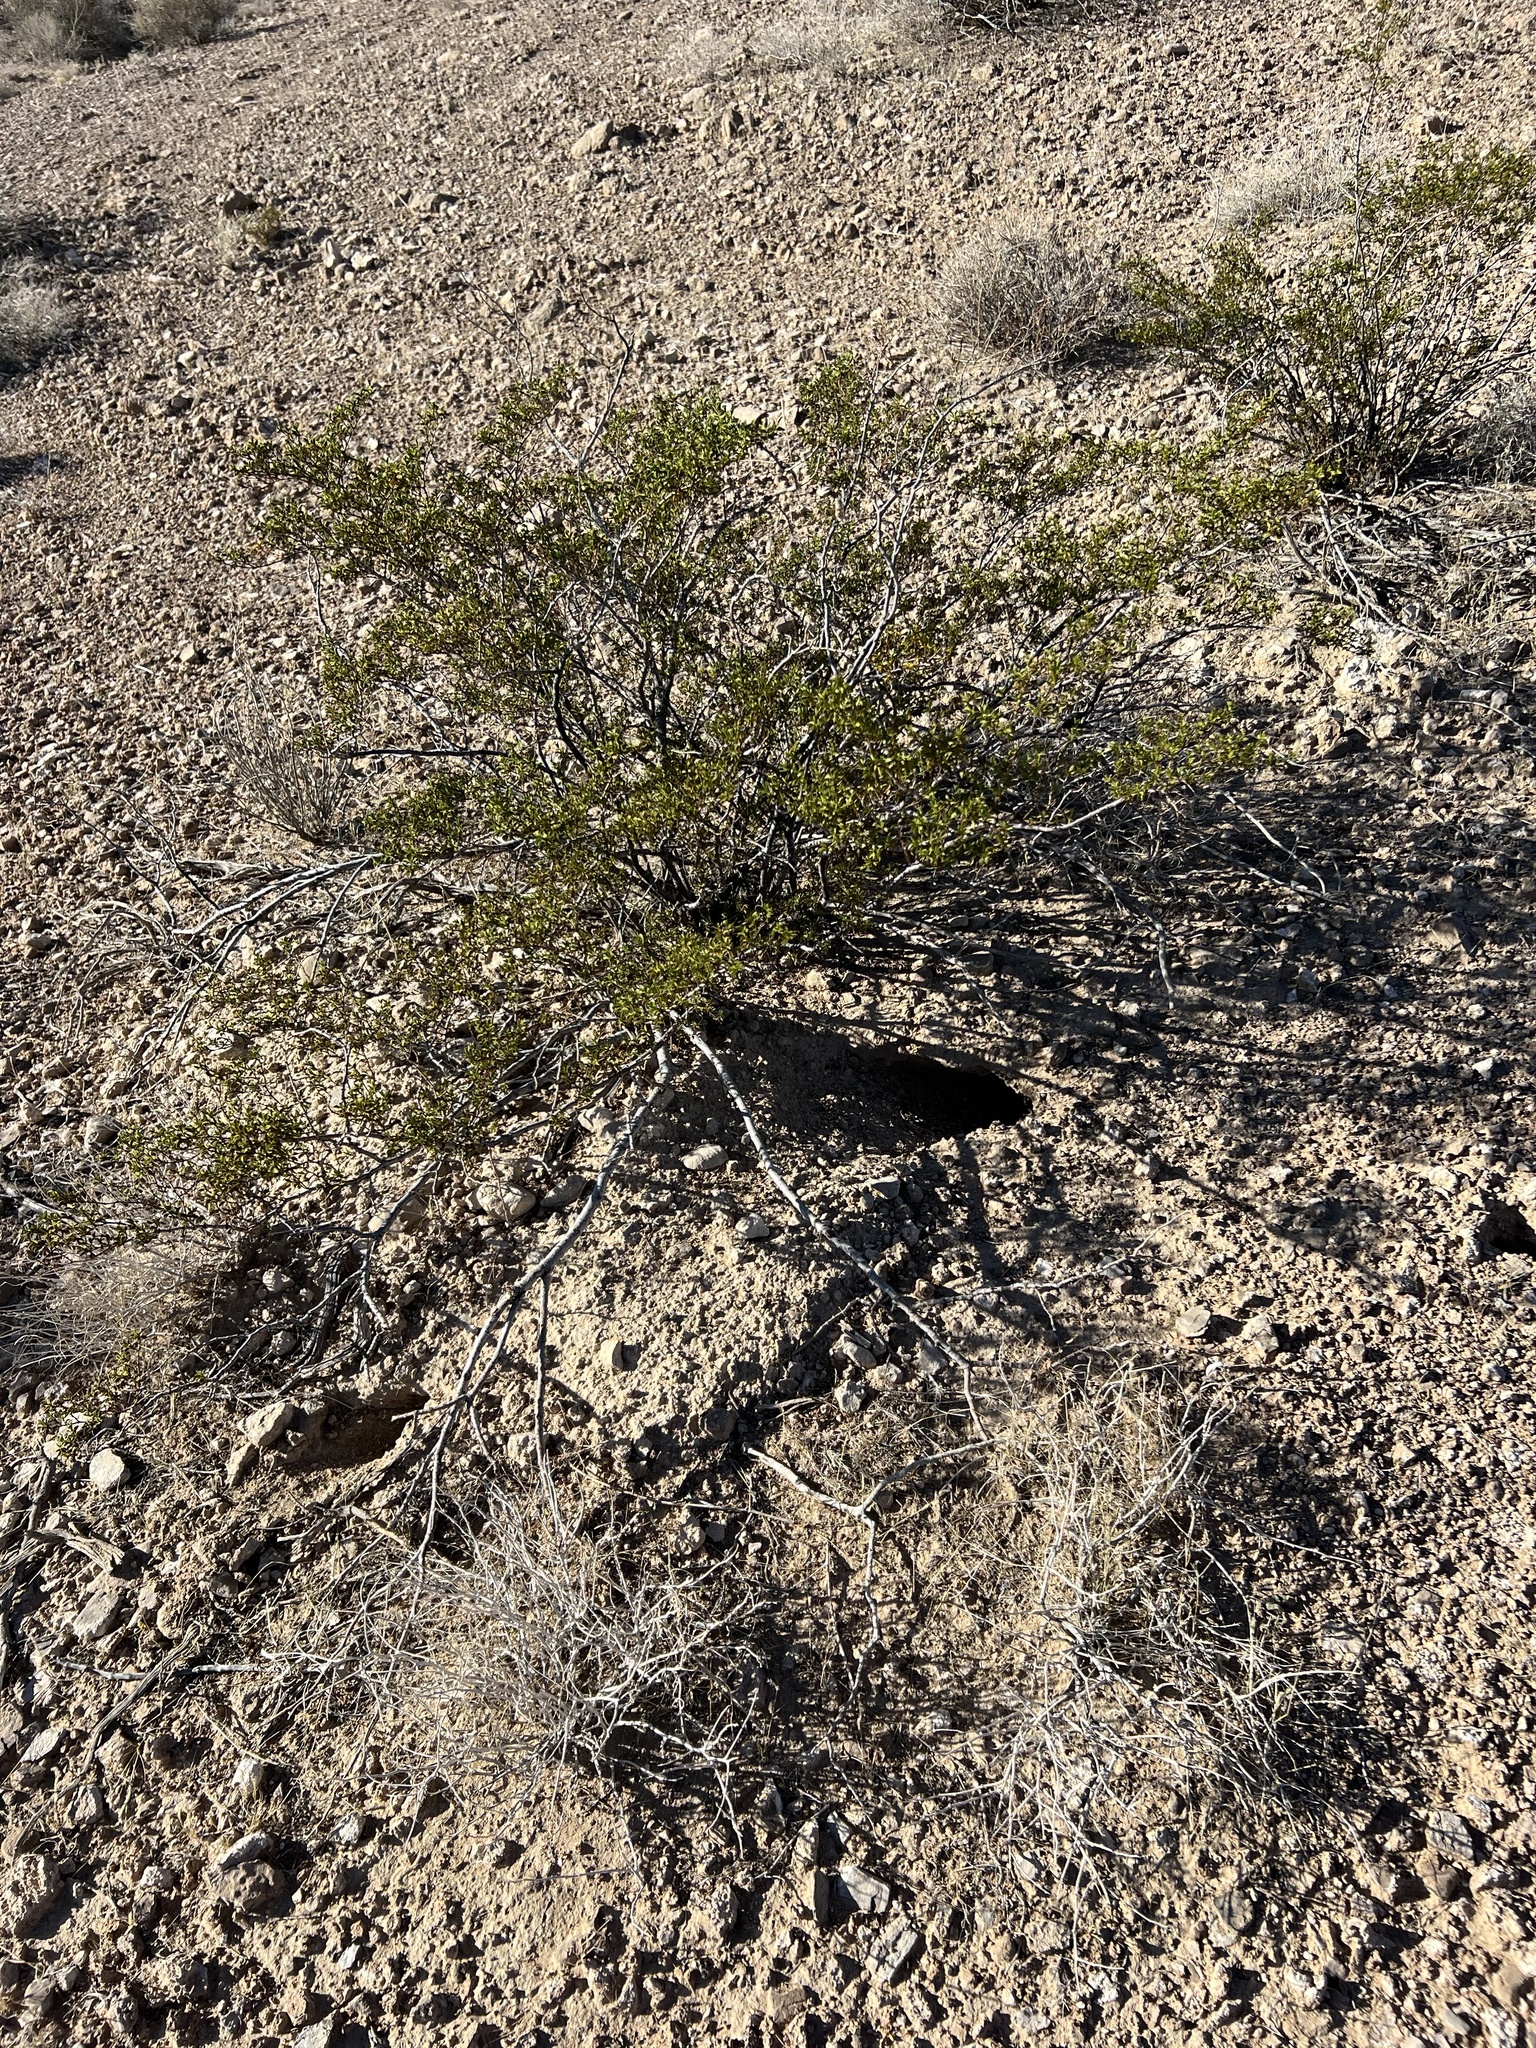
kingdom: Plantae
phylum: Tracheophyta
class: Magnoliopsida
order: Zygophyllales
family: Zygophyllaceae
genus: Larrea
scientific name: Larrea tridentata
